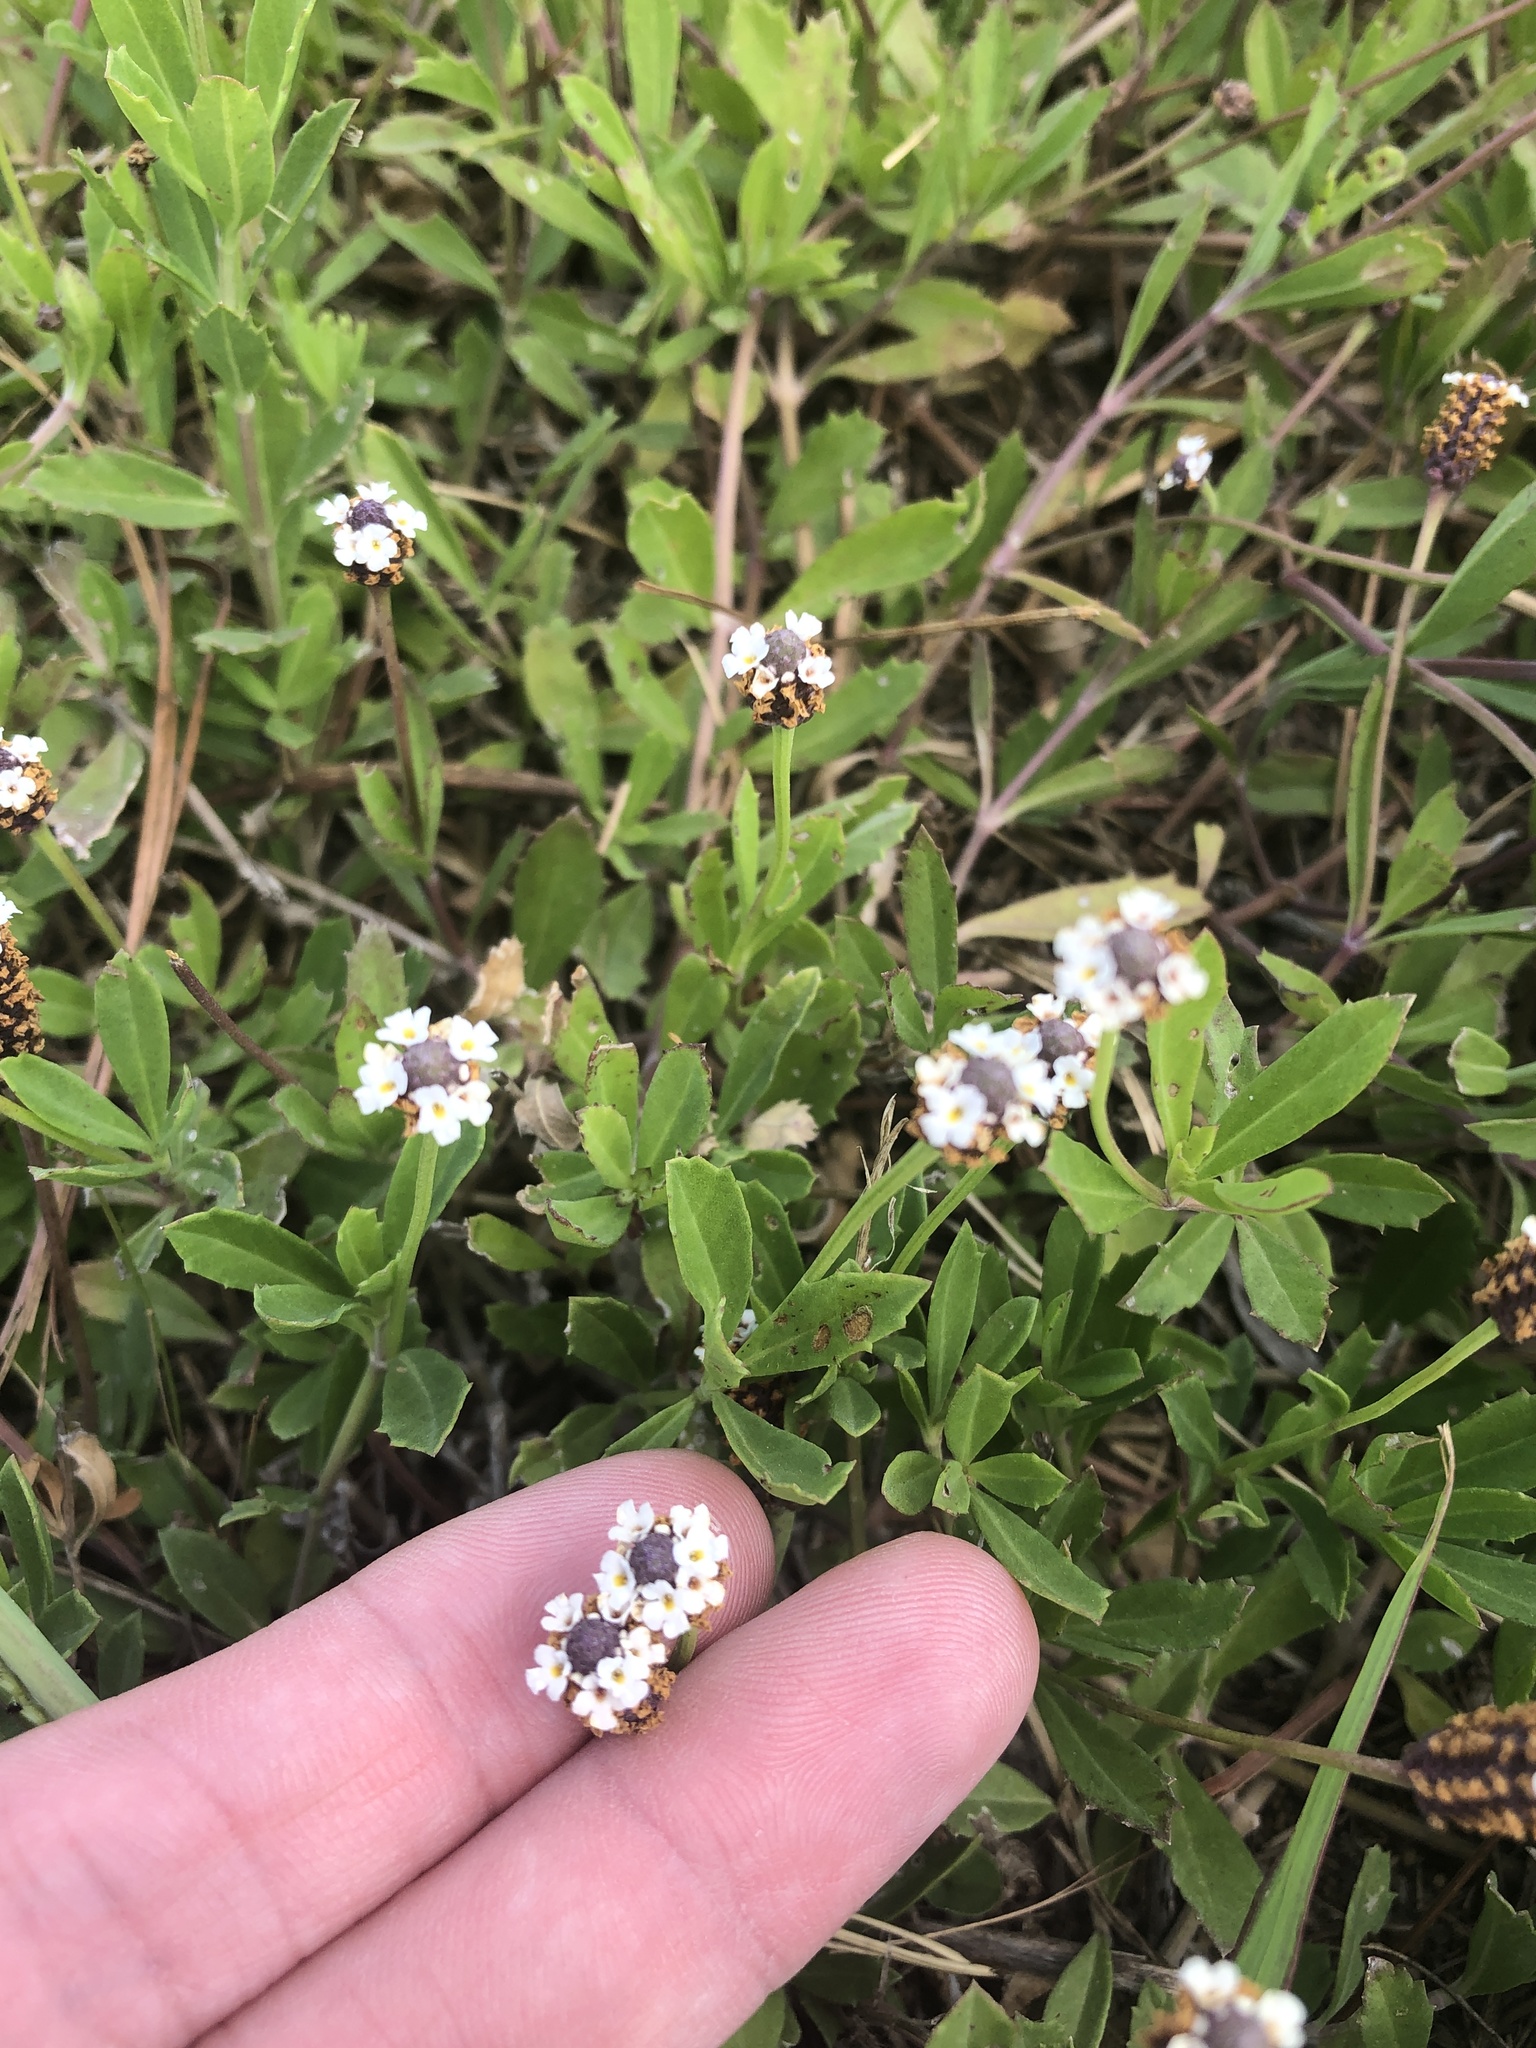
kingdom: Plantae
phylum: Tracheophyta
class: Magnoliopsida
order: Lamiales
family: Verbenaceae
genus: Phyla
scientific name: Phyla nodiflora
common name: Frogfruit
